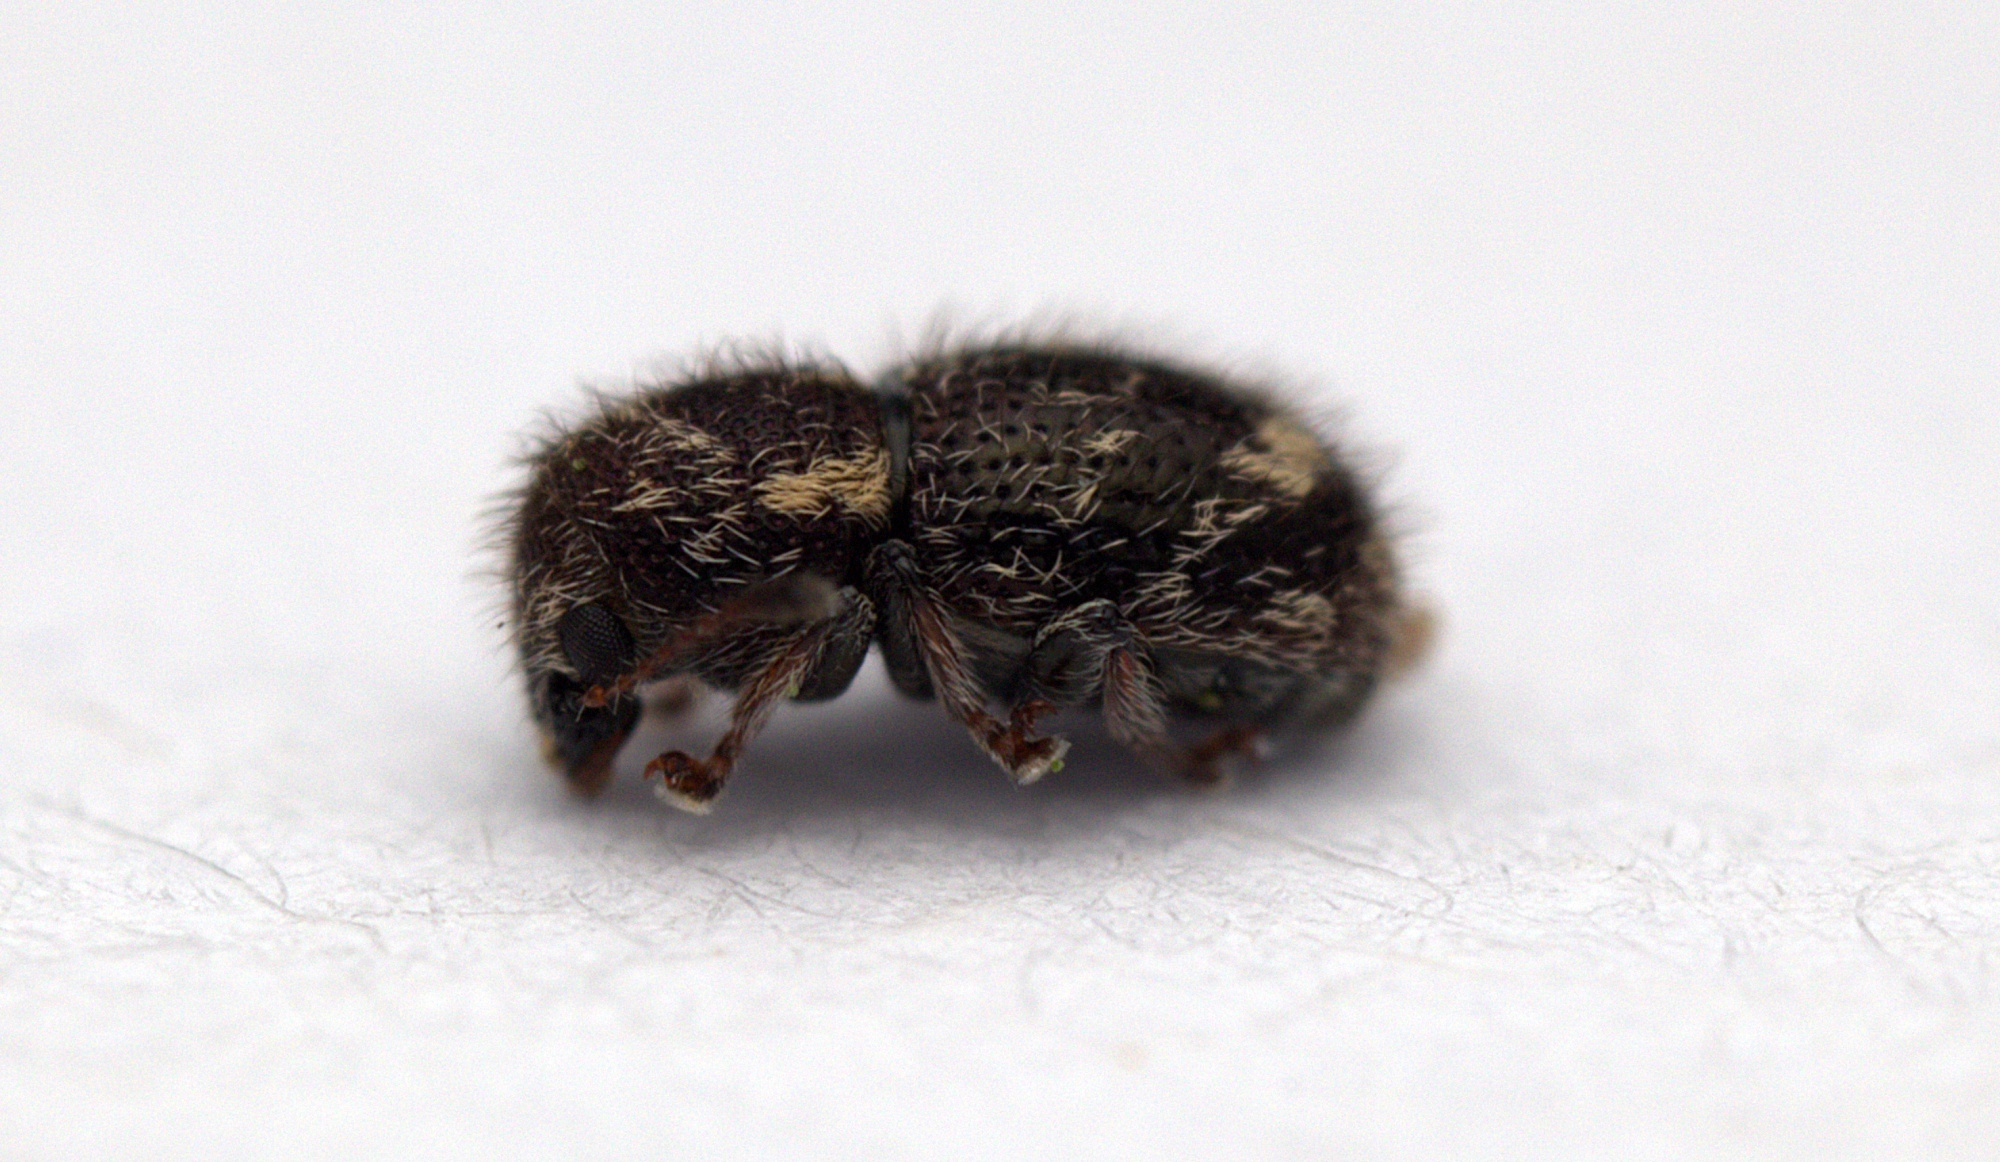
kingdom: Animalia
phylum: Arthropoda
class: Insecta
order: Coleoptera
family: Anthribidae
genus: Dasyanthribus
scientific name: Dasyanthribus purpureus
